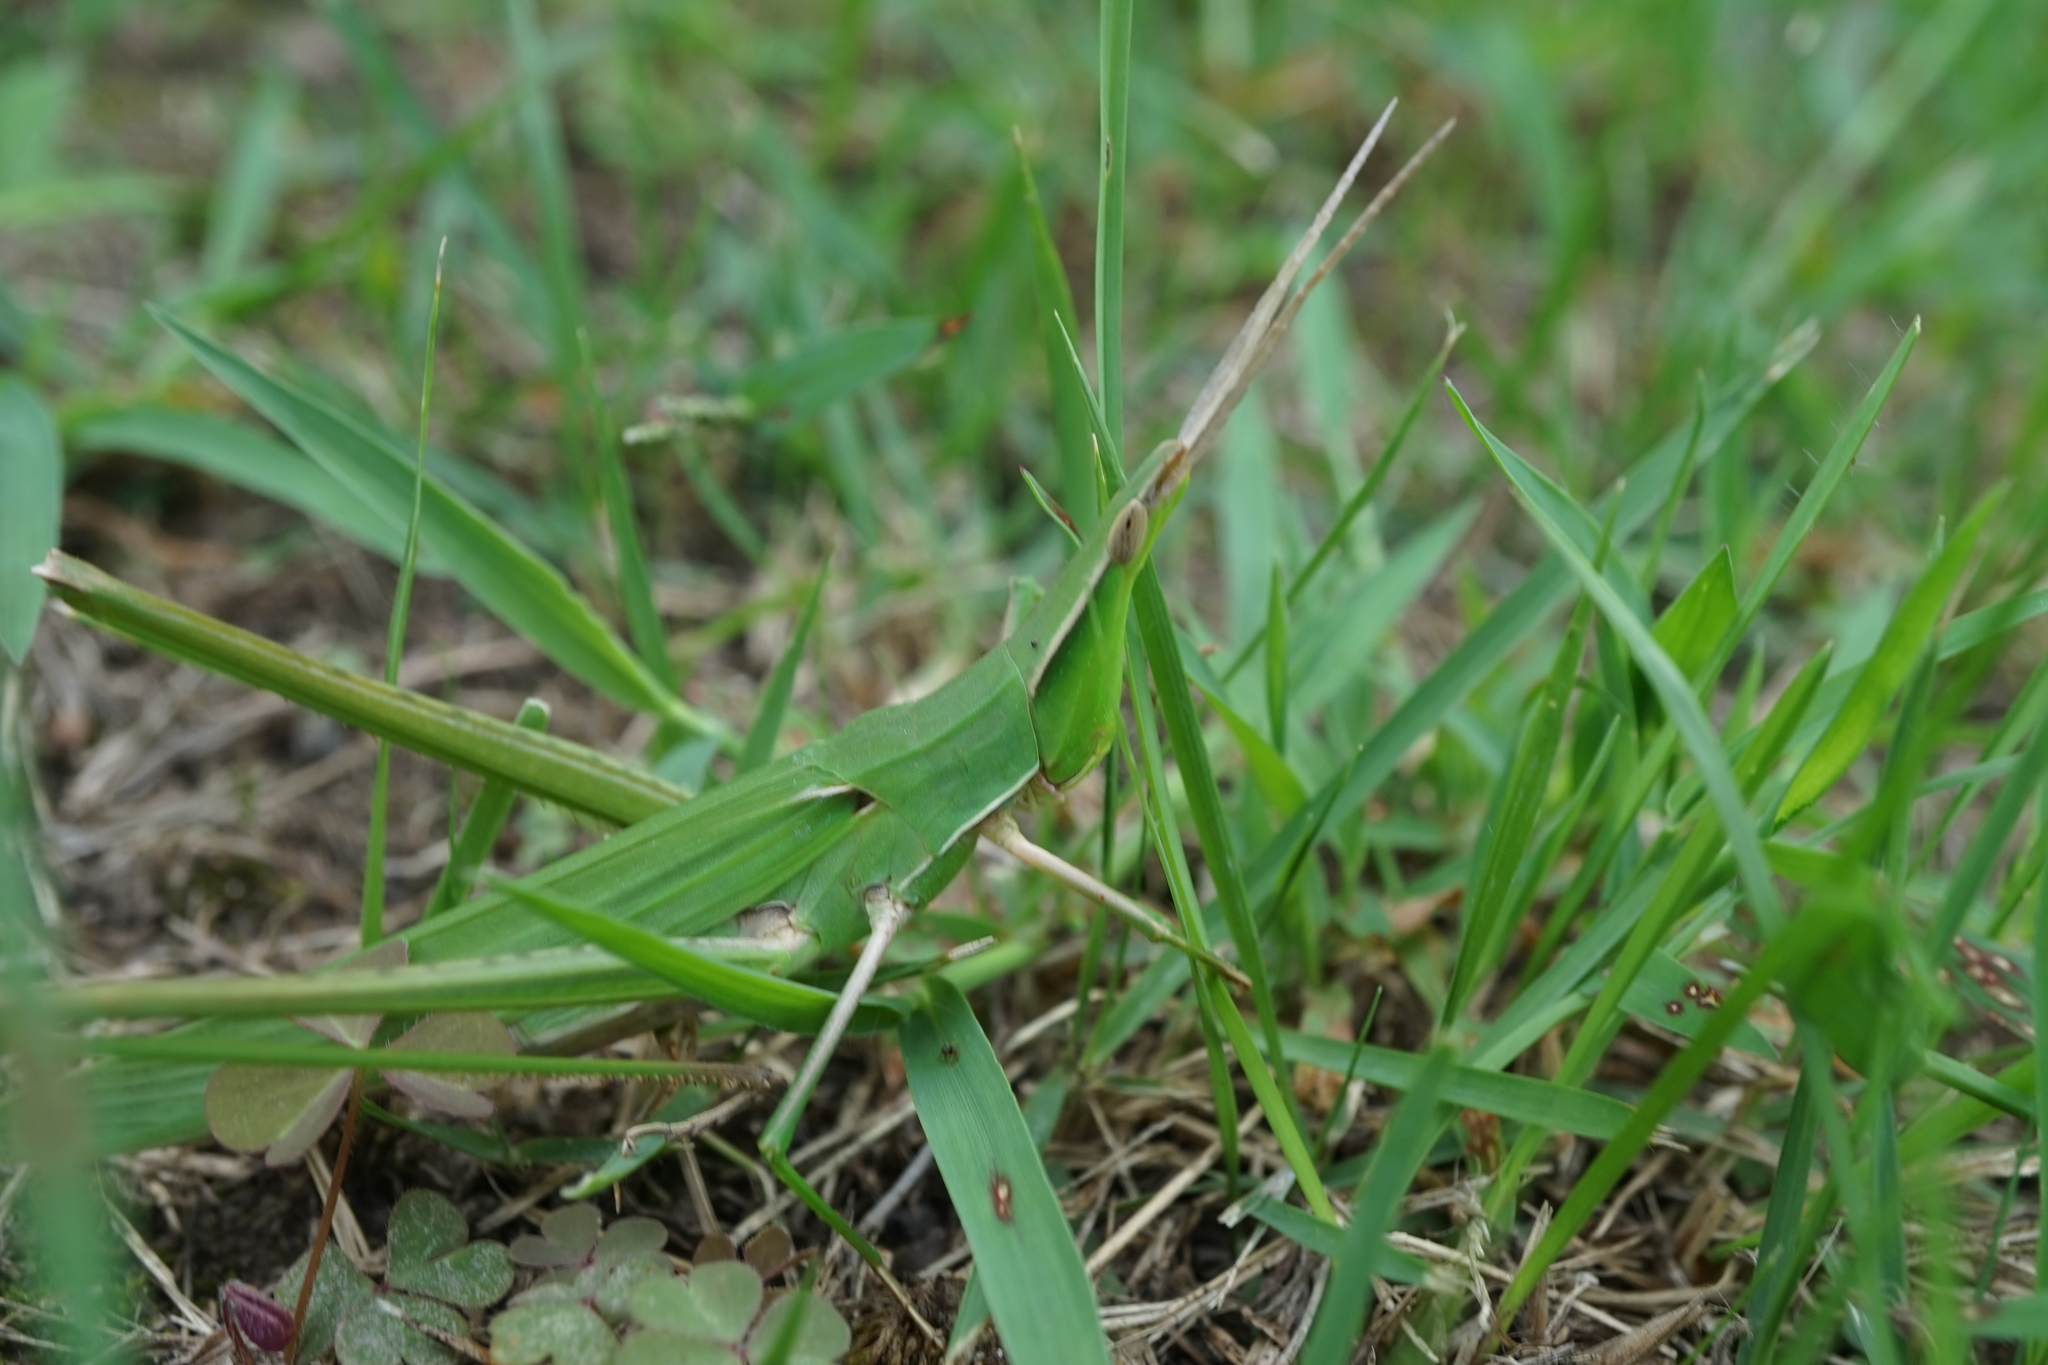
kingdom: Animalia
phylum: Arthropoda
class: Insecta
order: Orthoptera
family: Acrididae
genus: Acrida
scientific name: Acrida cinerea
